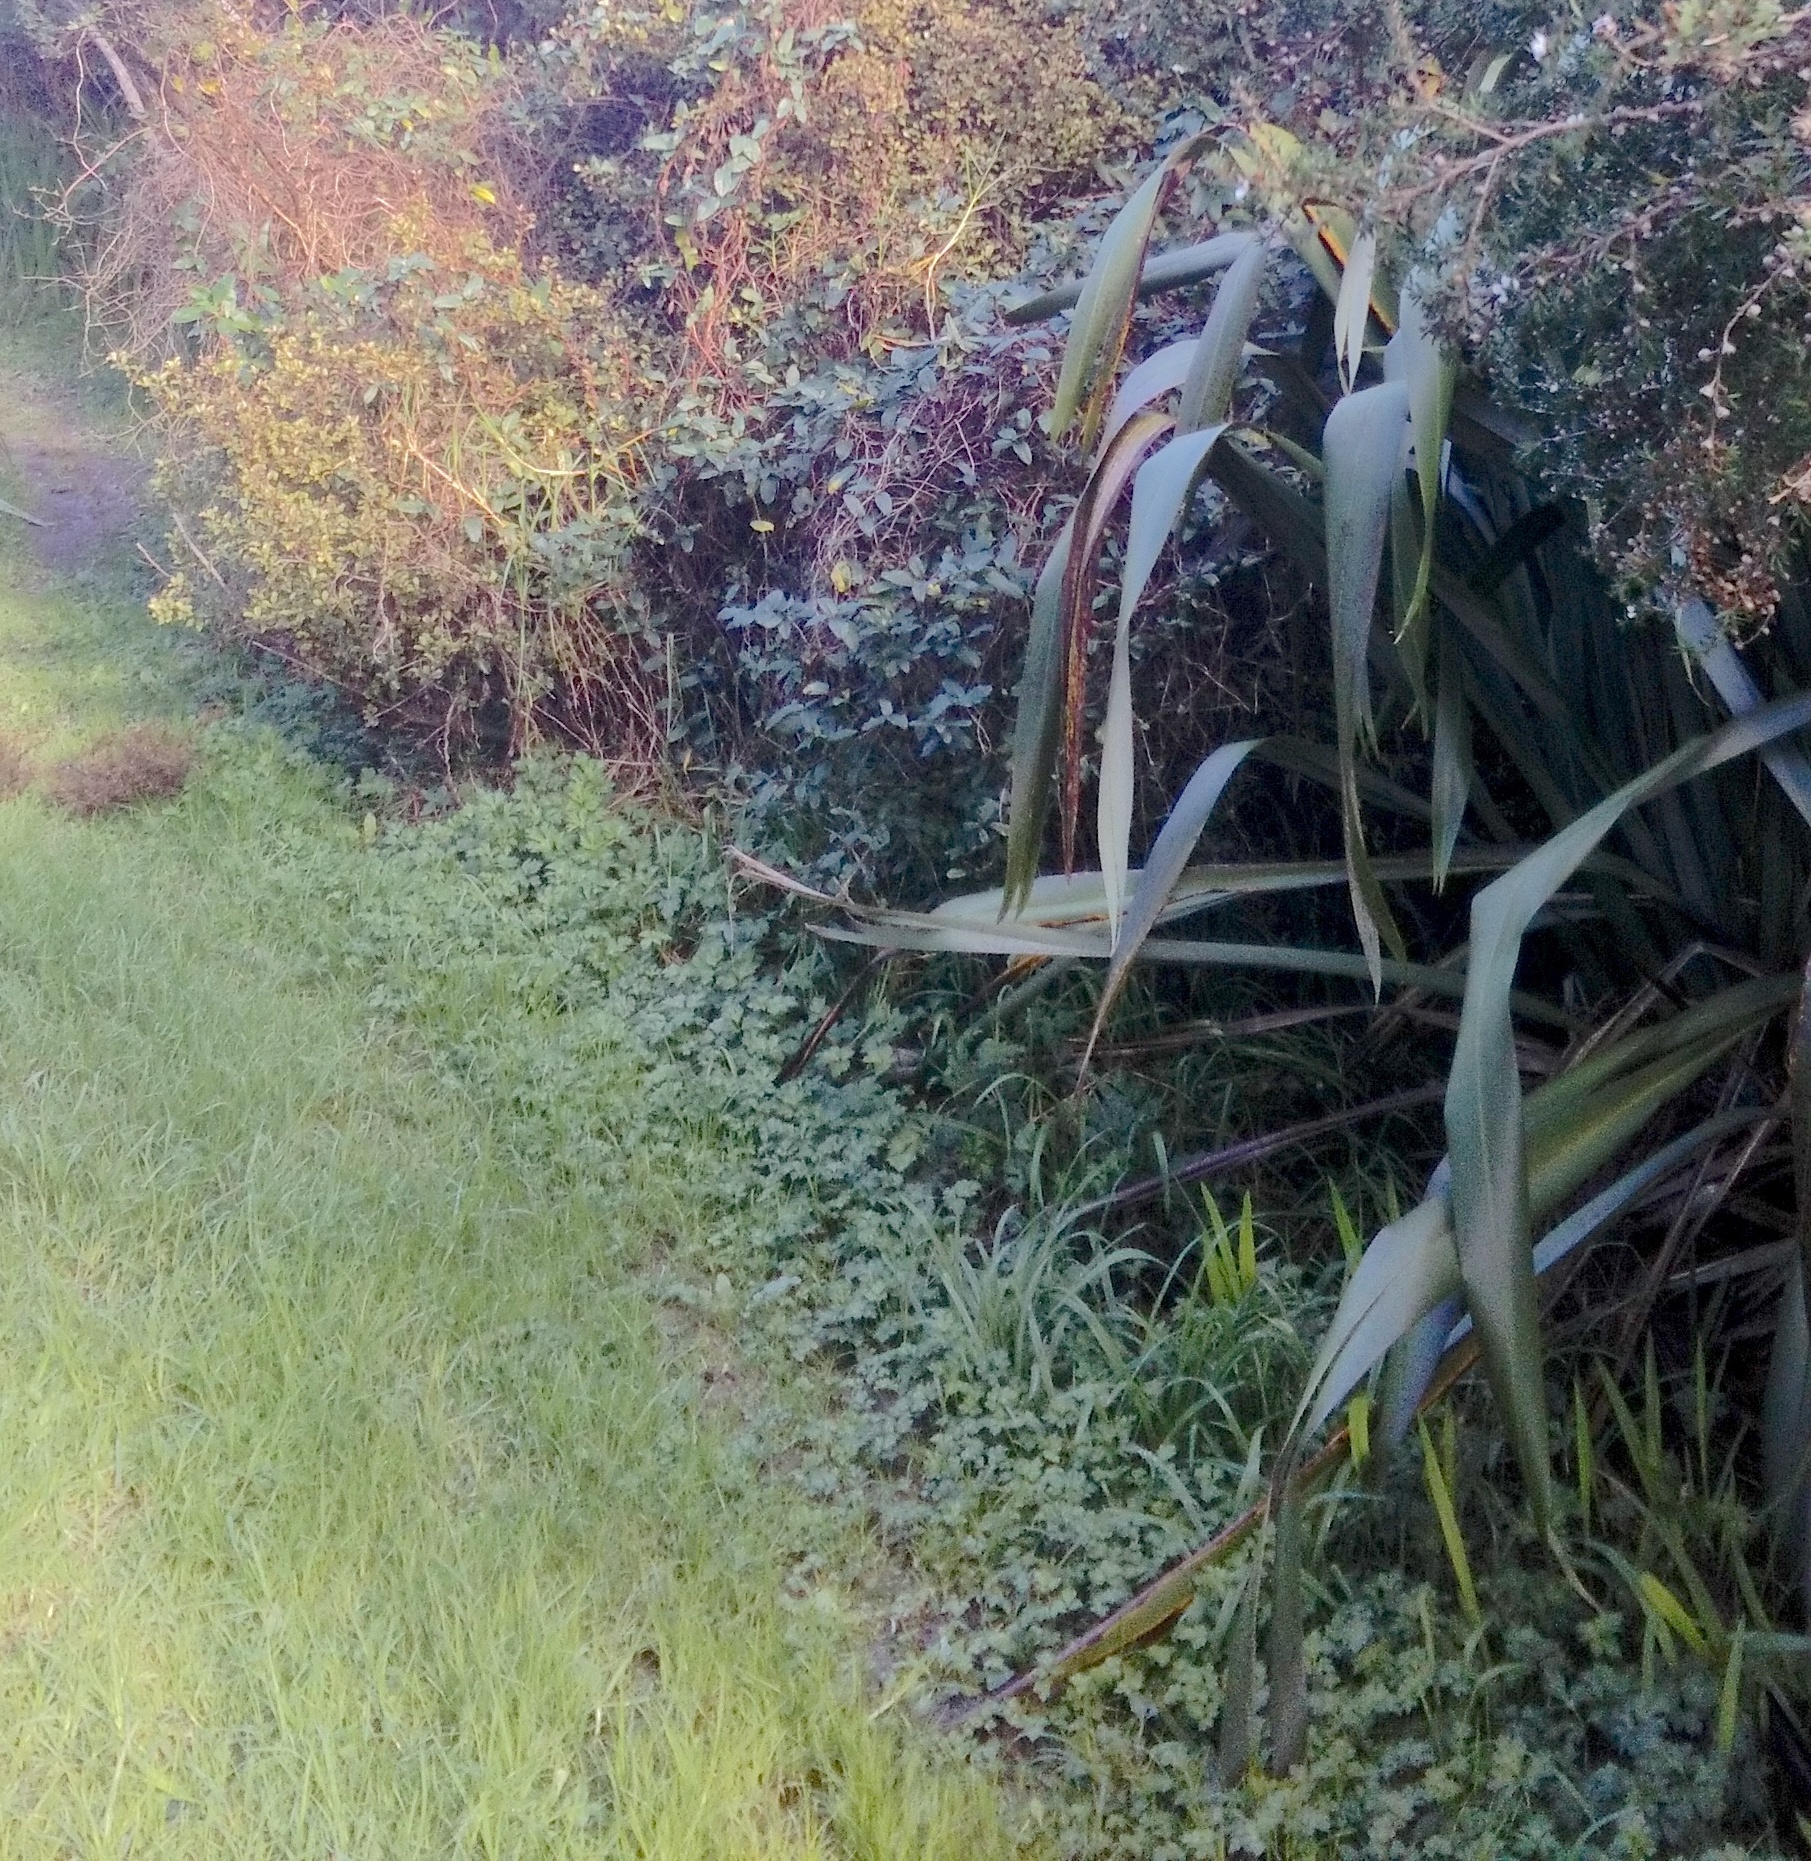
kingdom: Plantae
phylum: Tracheophyta
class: Liliopsida
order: Poales
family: Poaceae
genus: Cenchrus
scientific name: Cenchrus clandestinus
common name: Kikuyugrass
